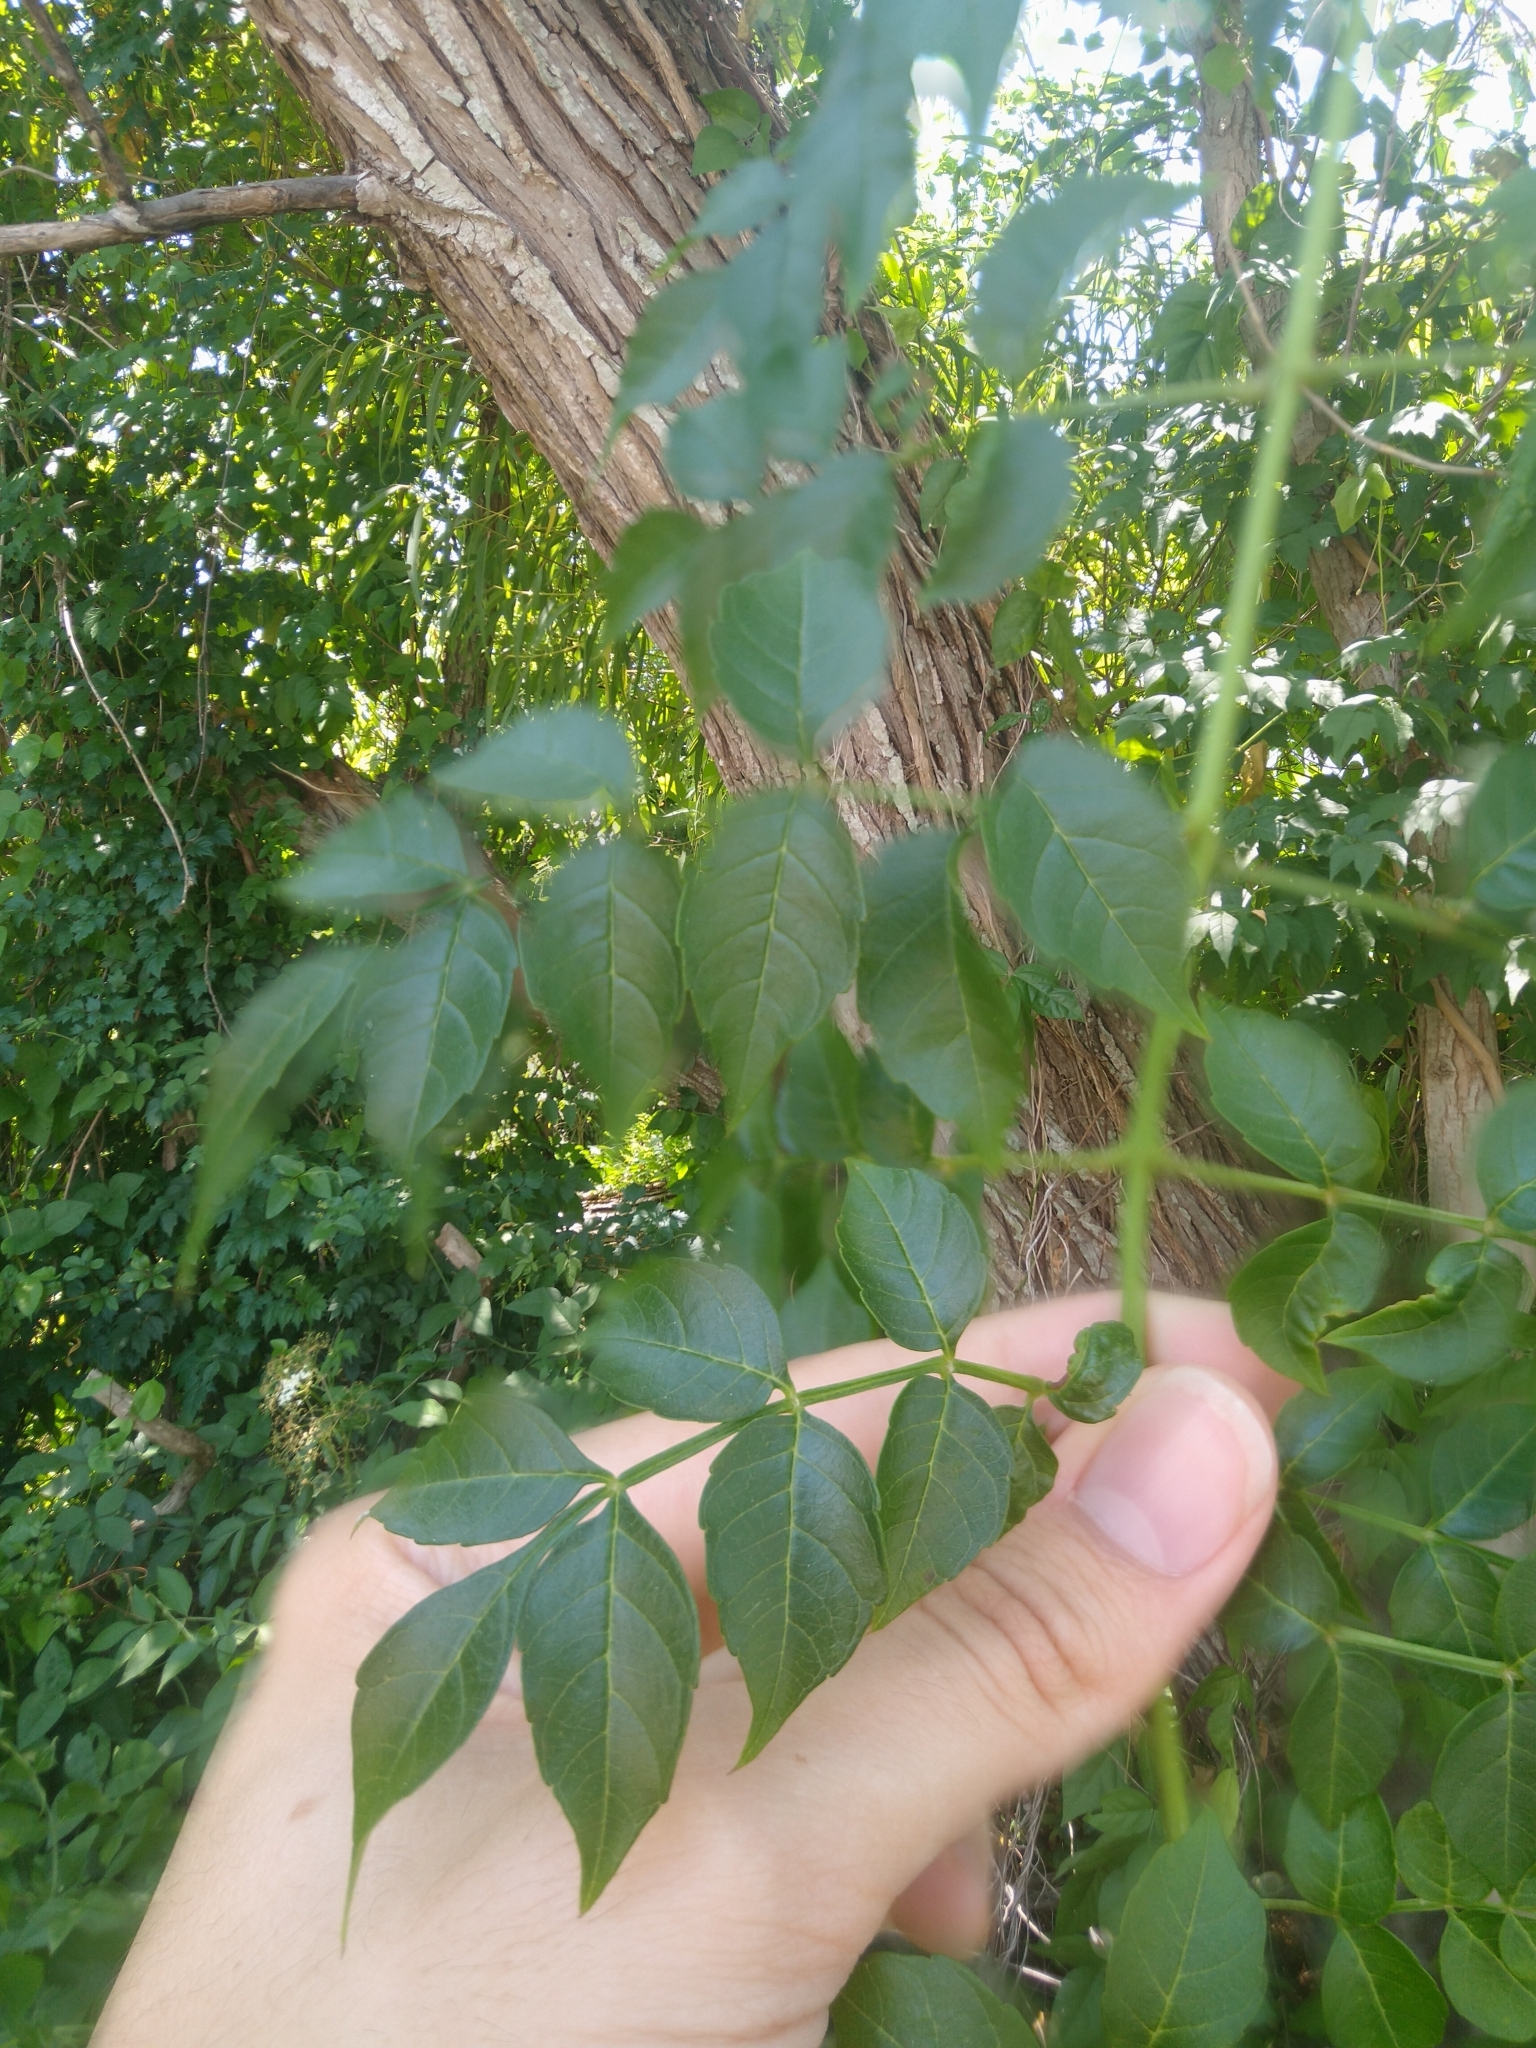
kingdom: Plantae
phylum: Tracheophyta
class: Magnoliopsida
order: Lamiales
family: Bignoniaceae
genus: Campsis
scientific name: Campsis radicans
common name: Trumpet-creeper
